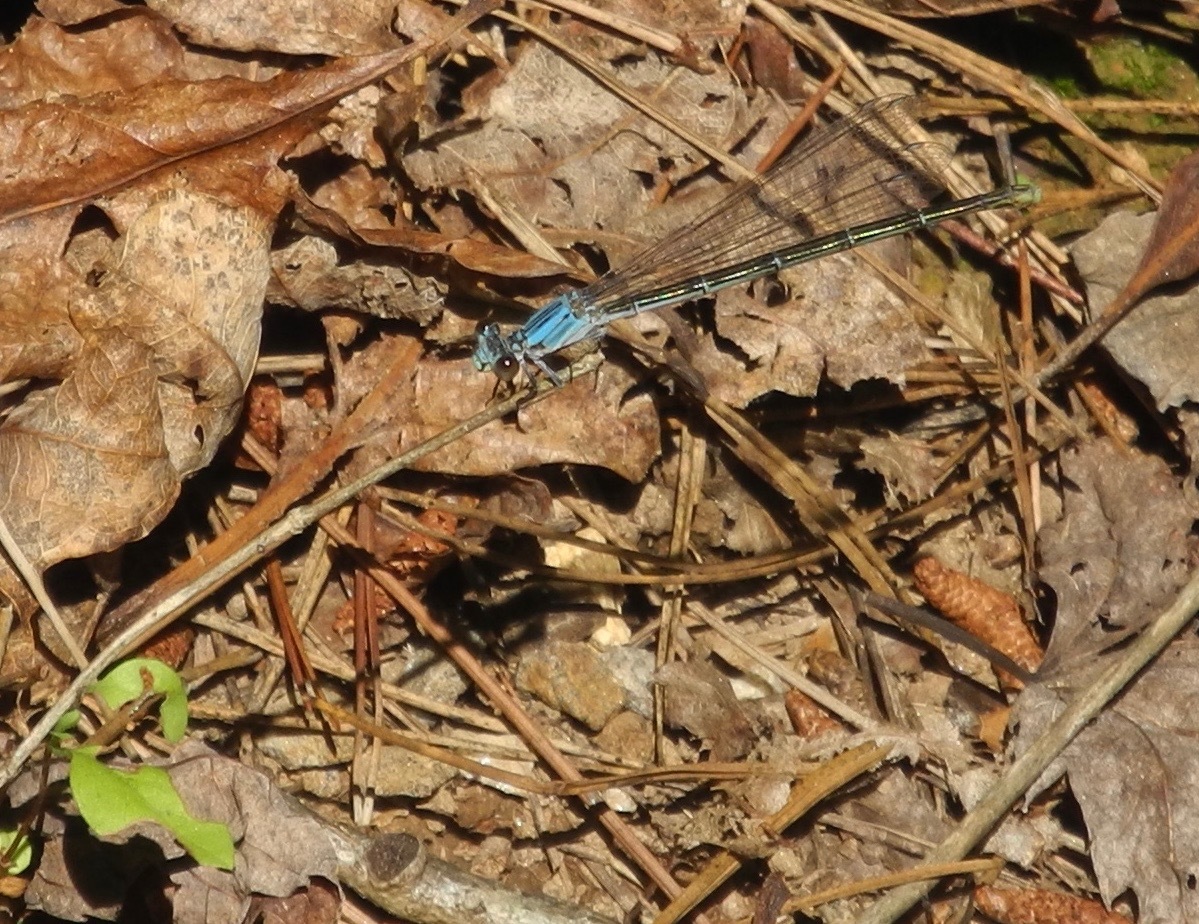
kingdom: Animalia
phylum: Arthropoda
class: Insecta
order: Odonata
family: Coenagrionidae
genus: Argia
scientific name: Argia moesta
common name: Powdered dancer
